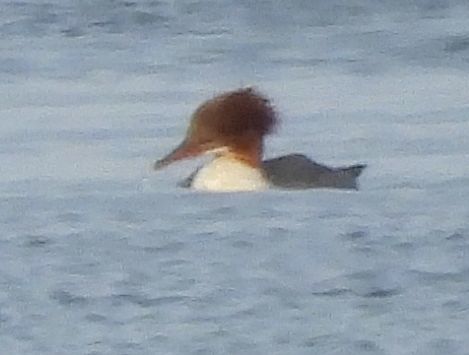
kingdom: Animalia
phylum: Chordata
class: Aves
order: Anseriformes
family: Anatidae
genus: Mergus
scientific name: Mergus merganser
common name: Common merganser
